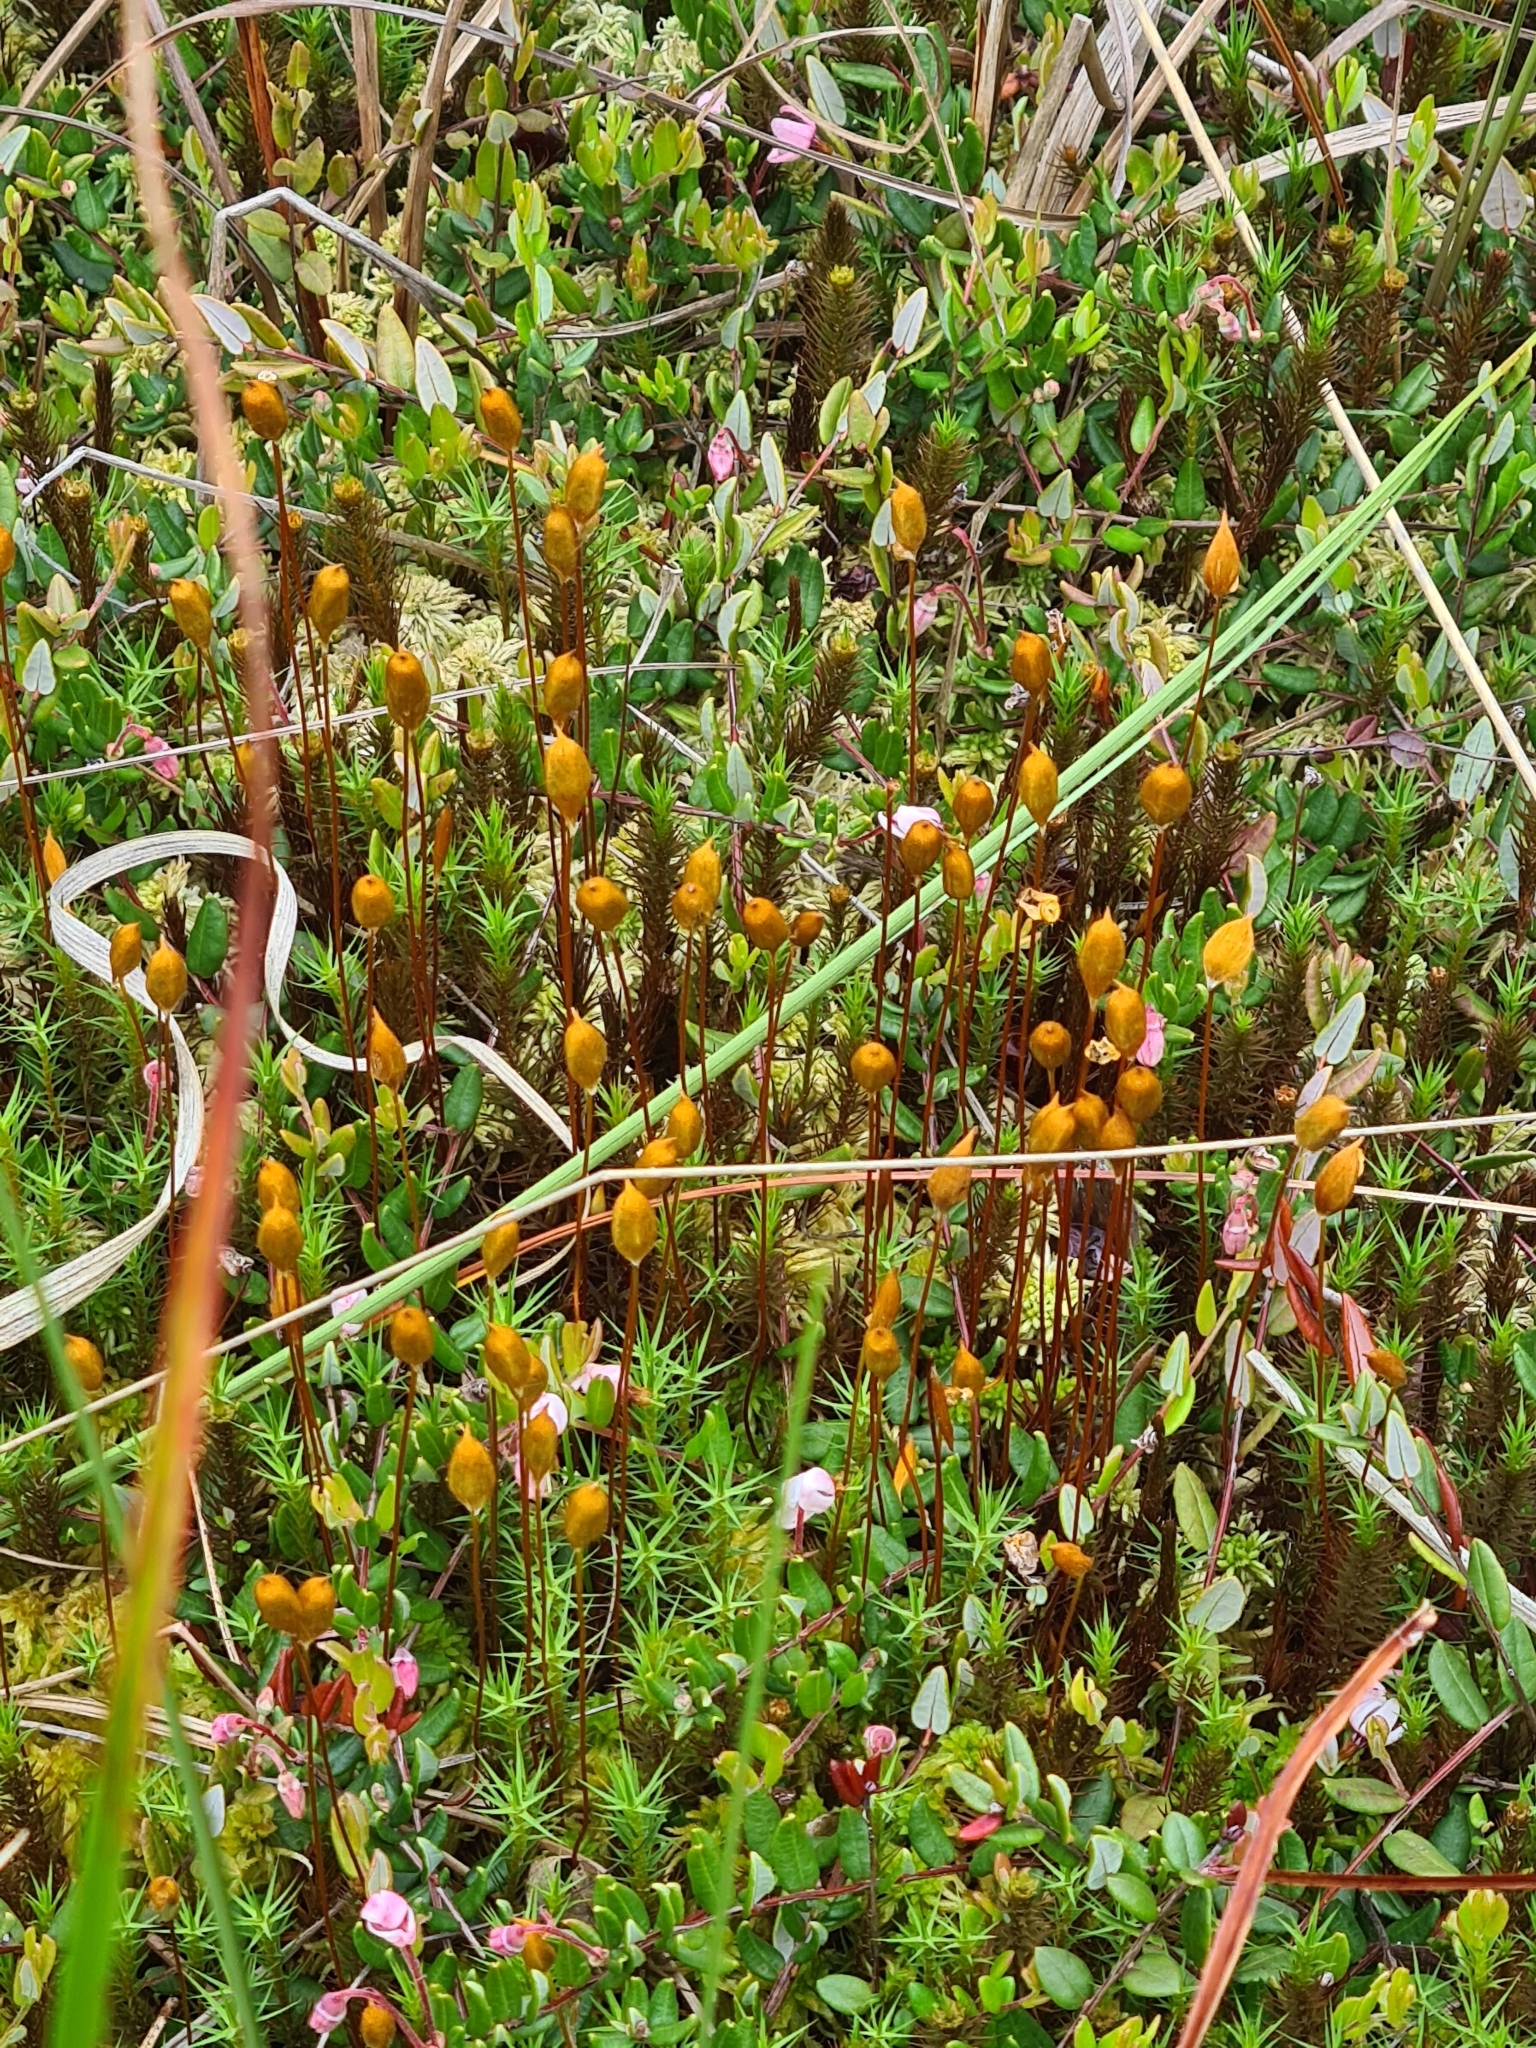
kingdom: Plantae
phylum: Bryophyta
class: Polytrichopsida
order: Polytrichales
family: Polytrichaceae
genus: Polytrichum
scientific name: Polytrichum commune
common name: Common haircap
